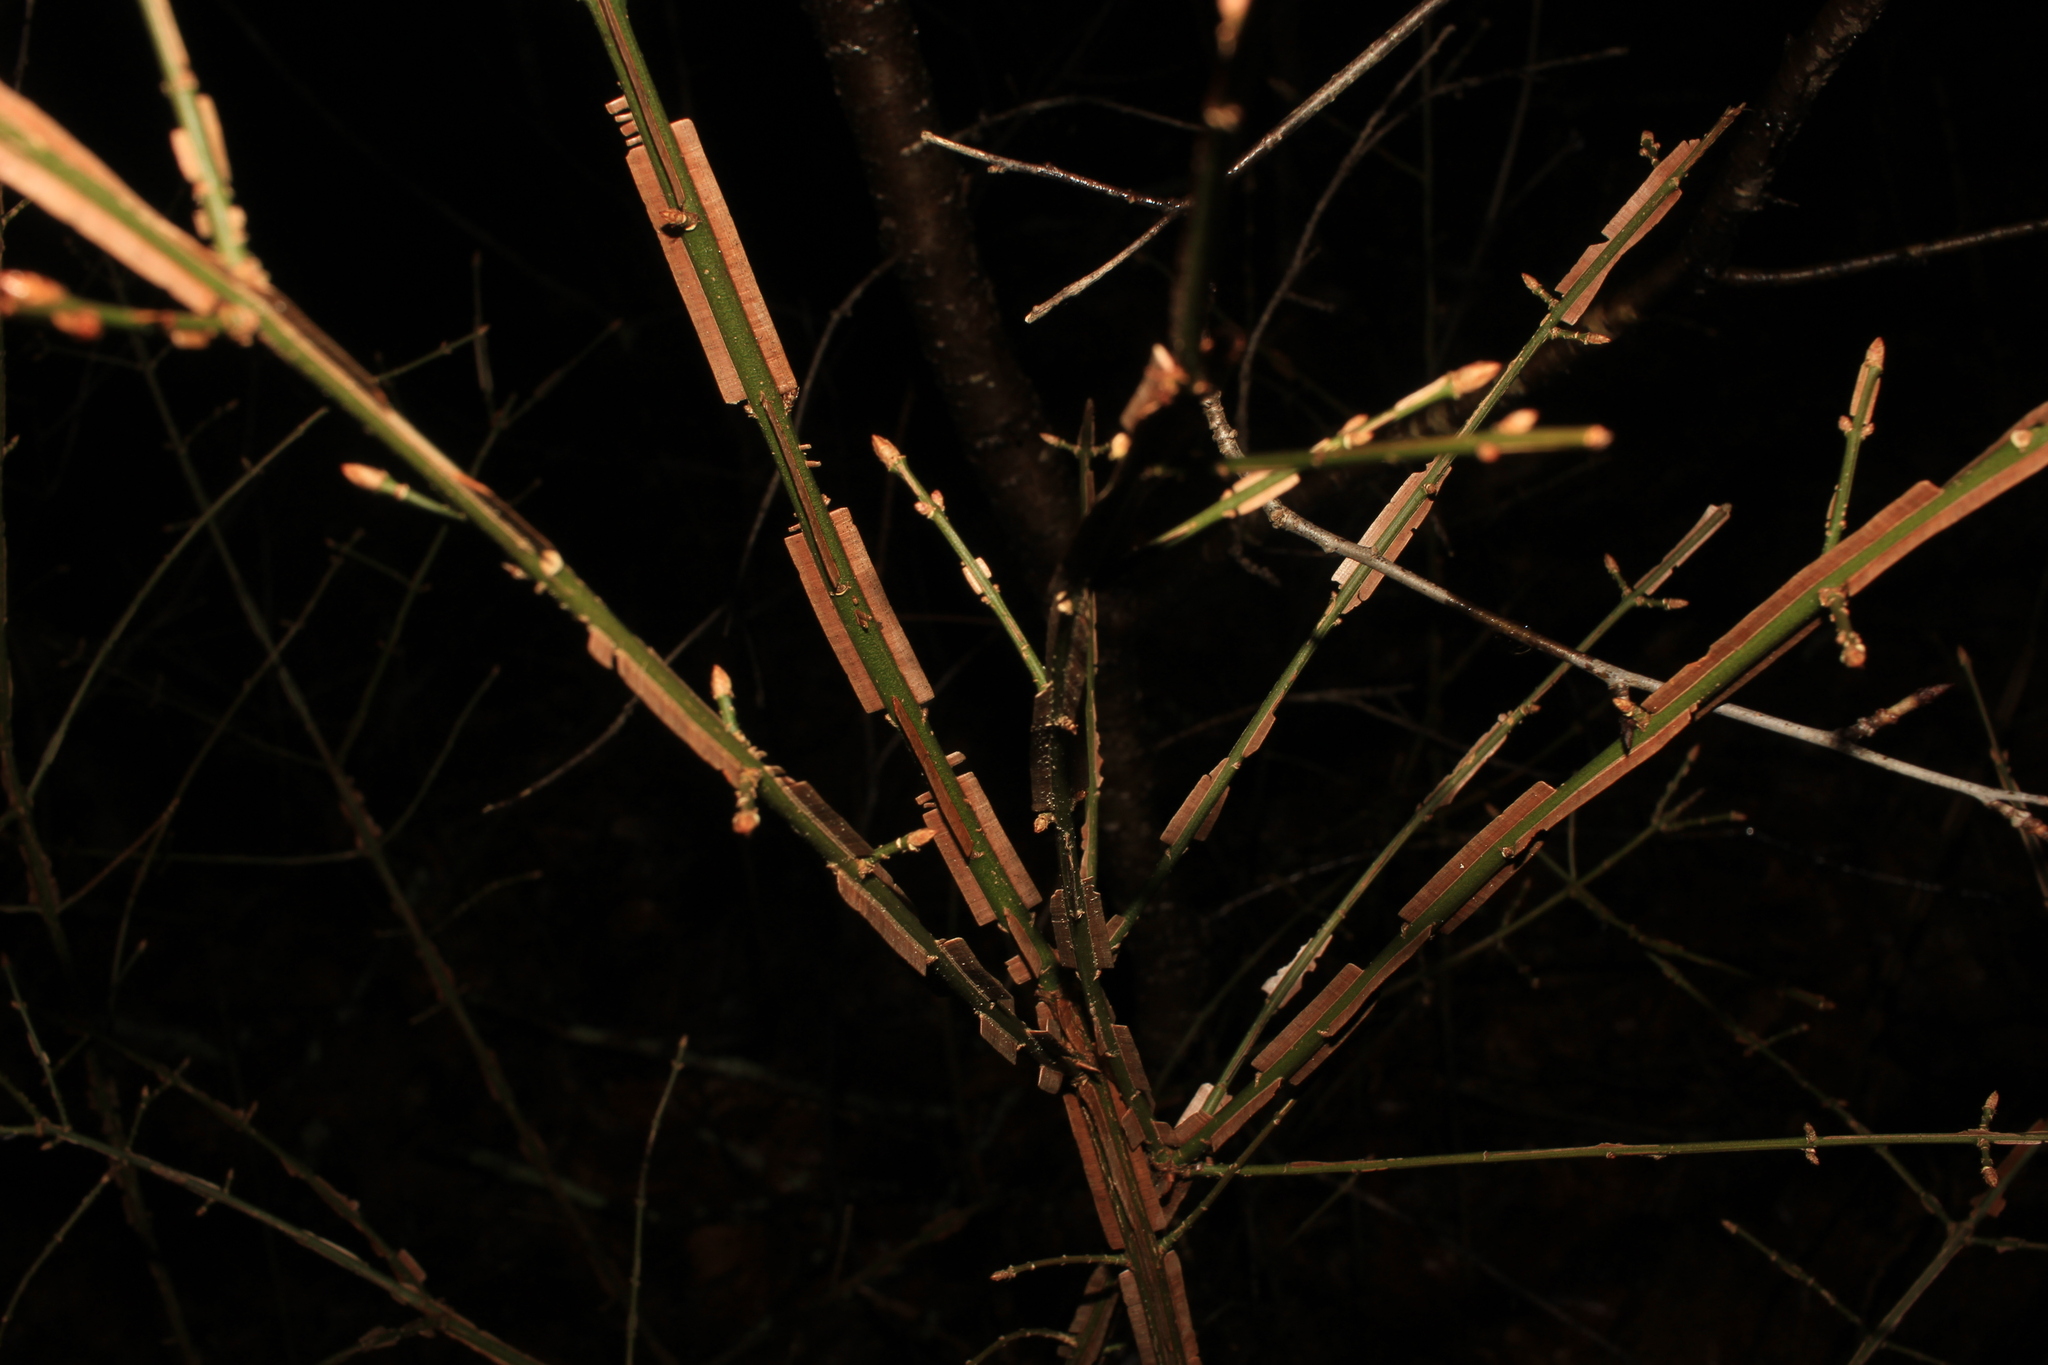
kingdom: Plantae
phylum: Tracheophyta
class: Magnoliopsida
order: Celastrales
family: Celastraceae
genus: Euonymus
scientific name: Euonymus alatus
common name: Winged euonymus
